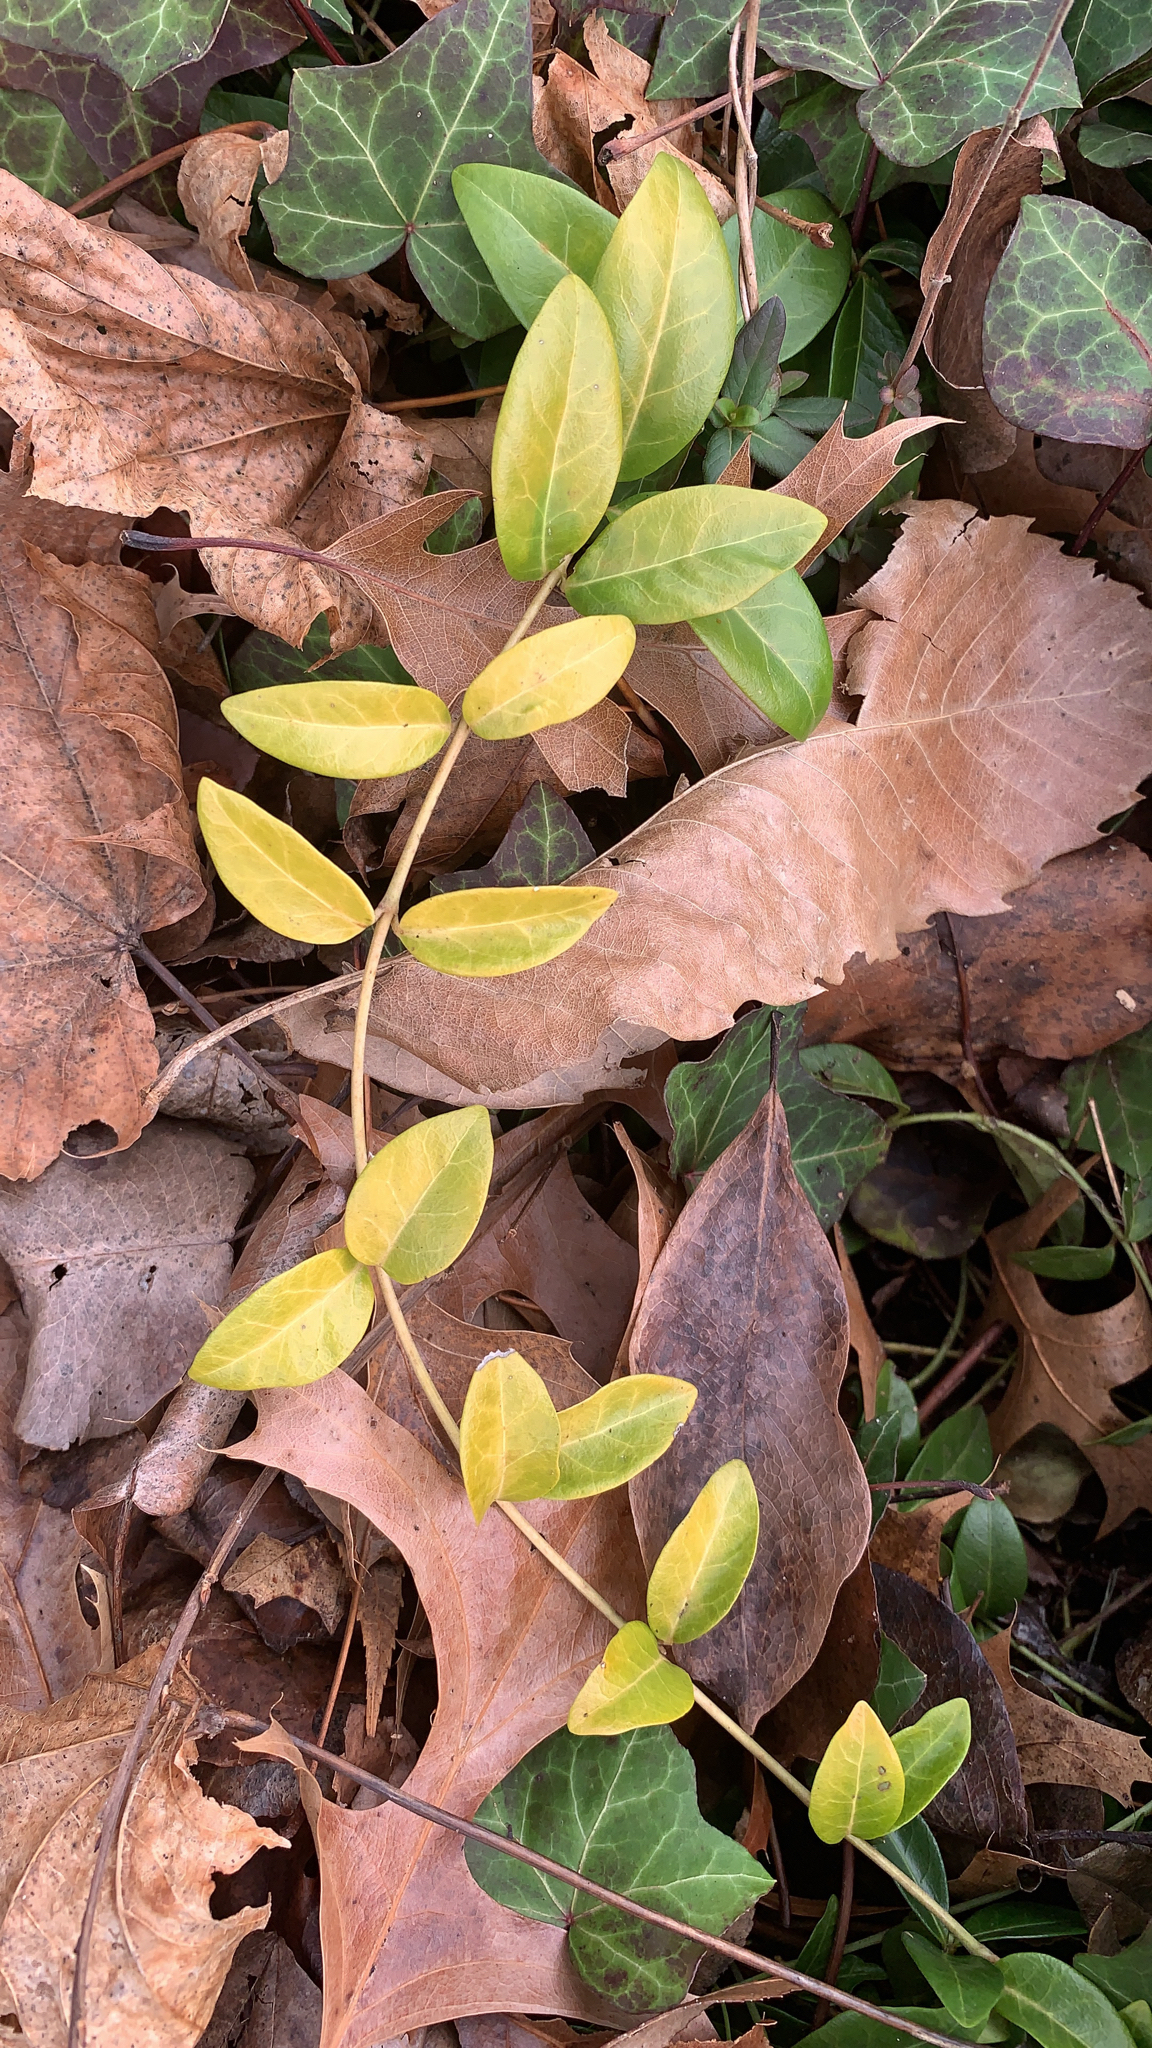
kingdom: Plantae
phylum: Tracheophyta
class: Magnoliopsida
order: Dipsacales
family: Caprifoliaceae
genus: Lonicera
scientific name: Lonicera japonica
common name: Japanese honeysuckle
